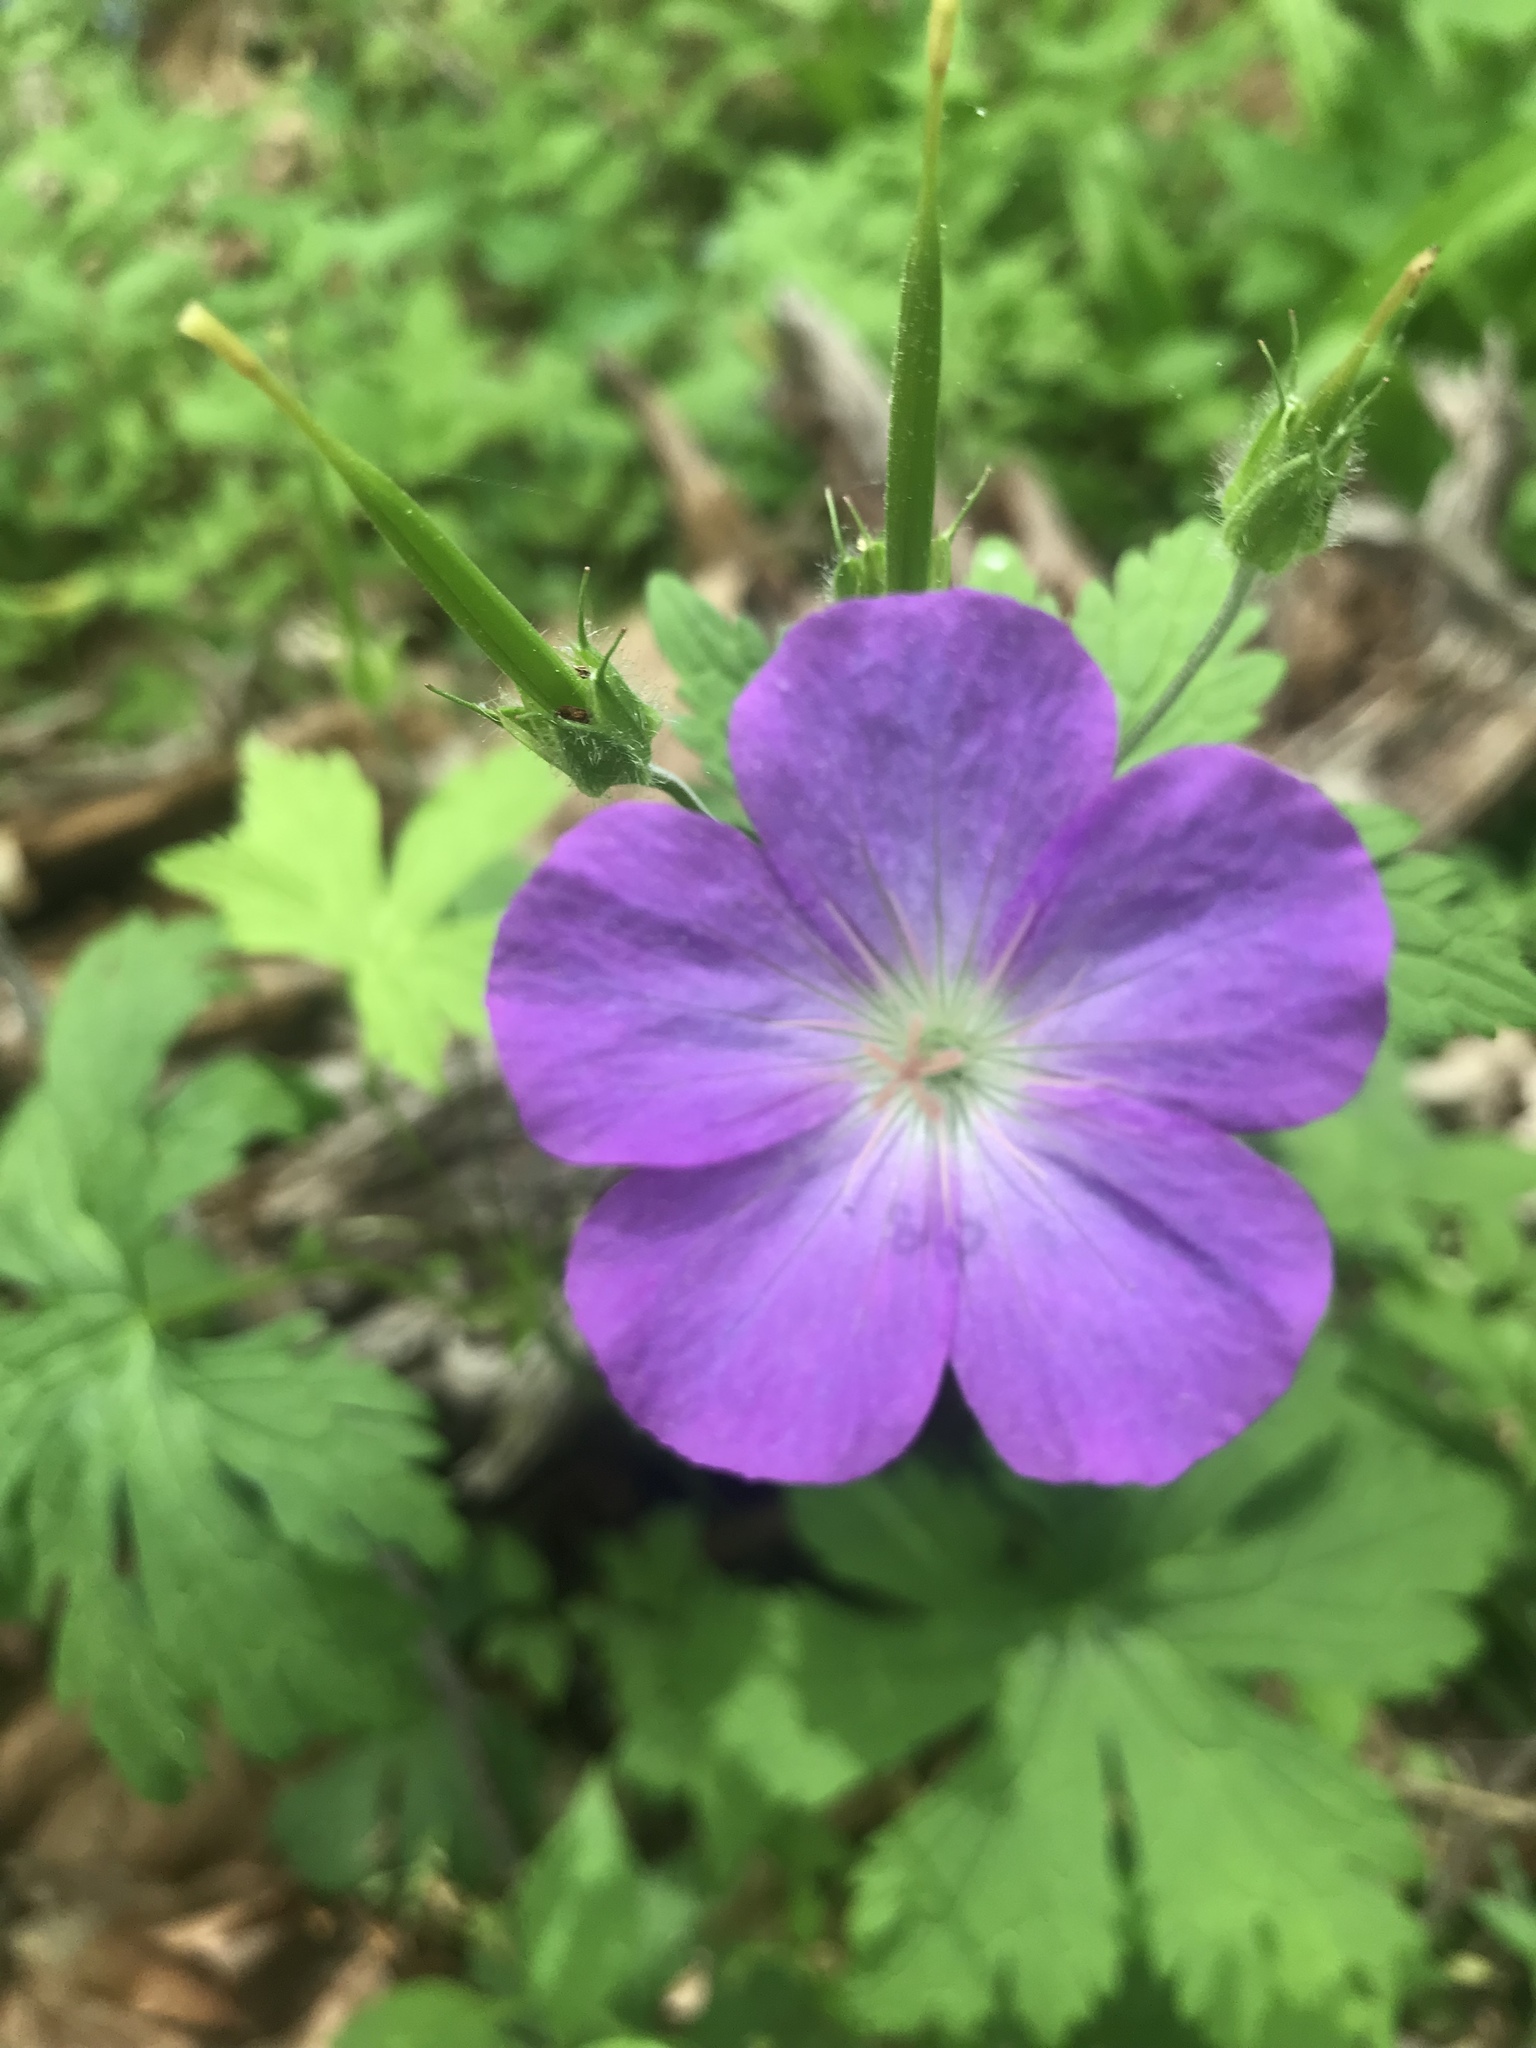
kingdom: Plantae
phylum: Tracheophyta
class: Magnoliopsida
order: Geraniales
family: Geraniaceae
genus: Geranium
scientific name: Geranium maculatum
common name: Spotted geranium
